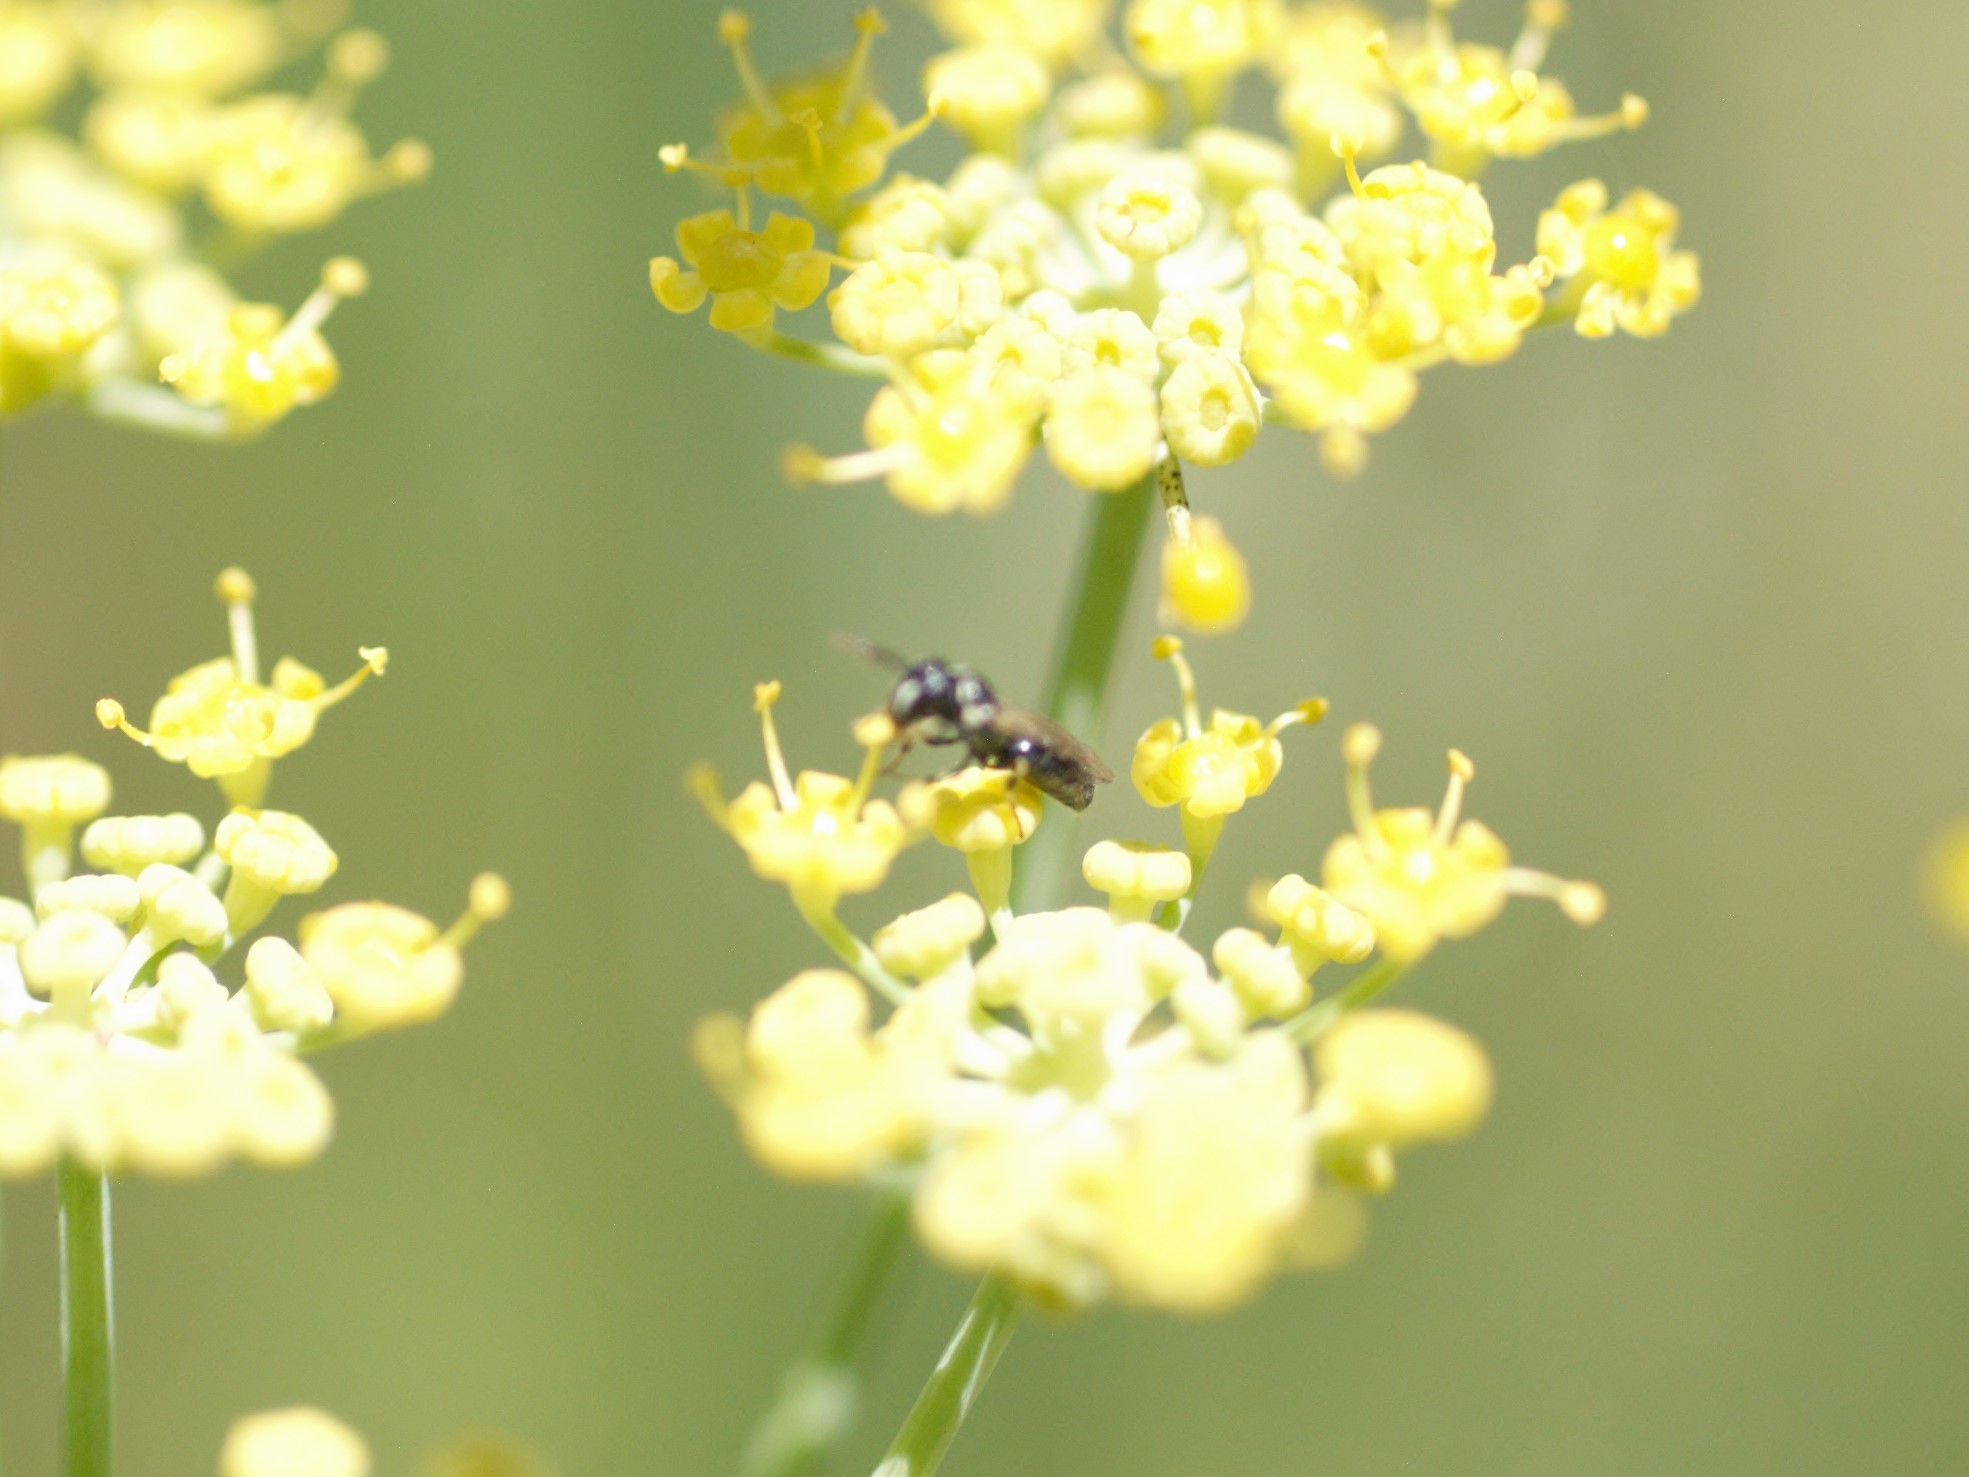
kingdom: Animalia
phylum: Arthropoda
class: Insecta
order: Hymenoptera
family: Colletidae
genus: Hylaeus
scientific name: Hylaeus
